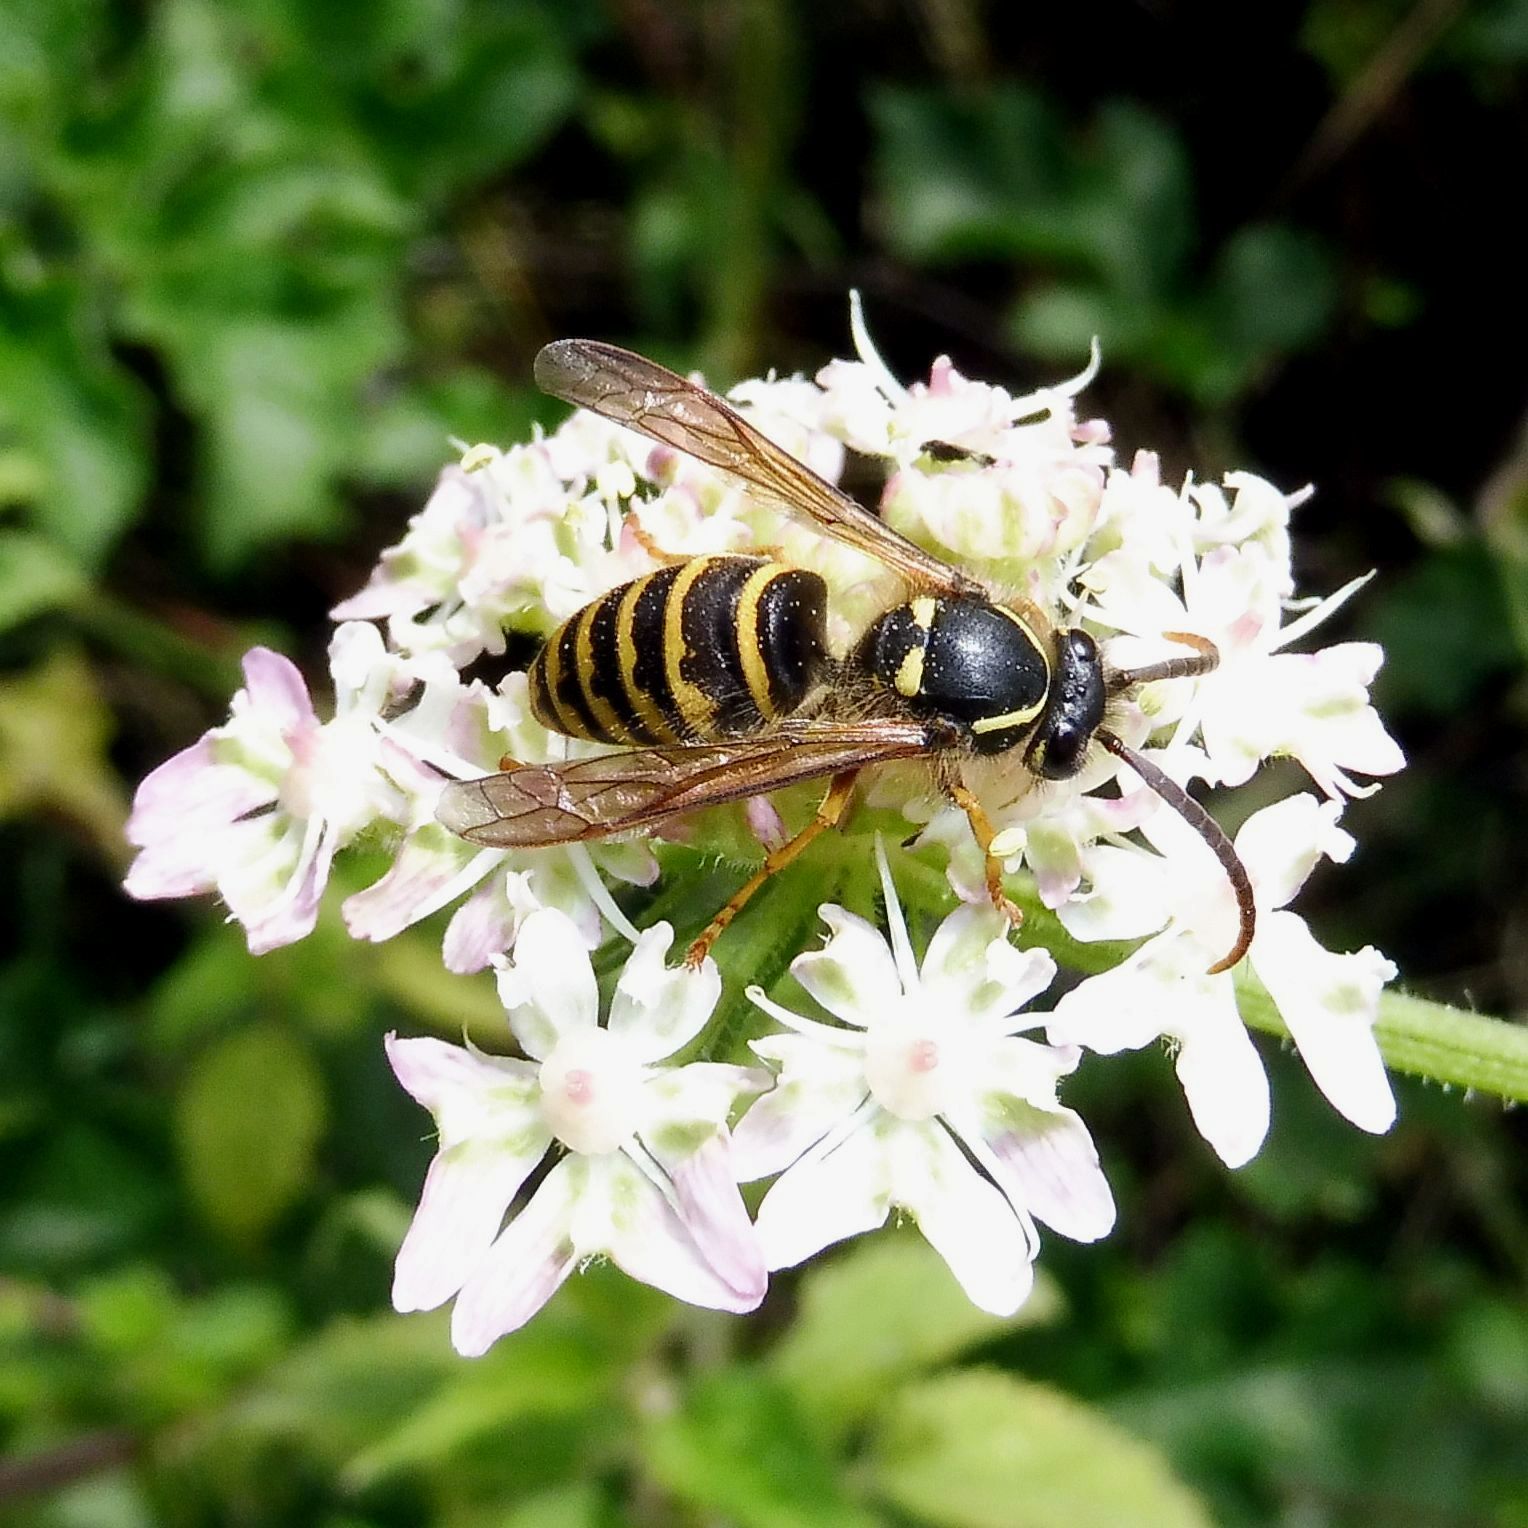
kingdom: Animalia
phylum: Arthropoda
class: Insecta
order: Hymenoptera
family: Vespidae
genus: Dolichovespula
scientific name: Dolichovespula saxonica
